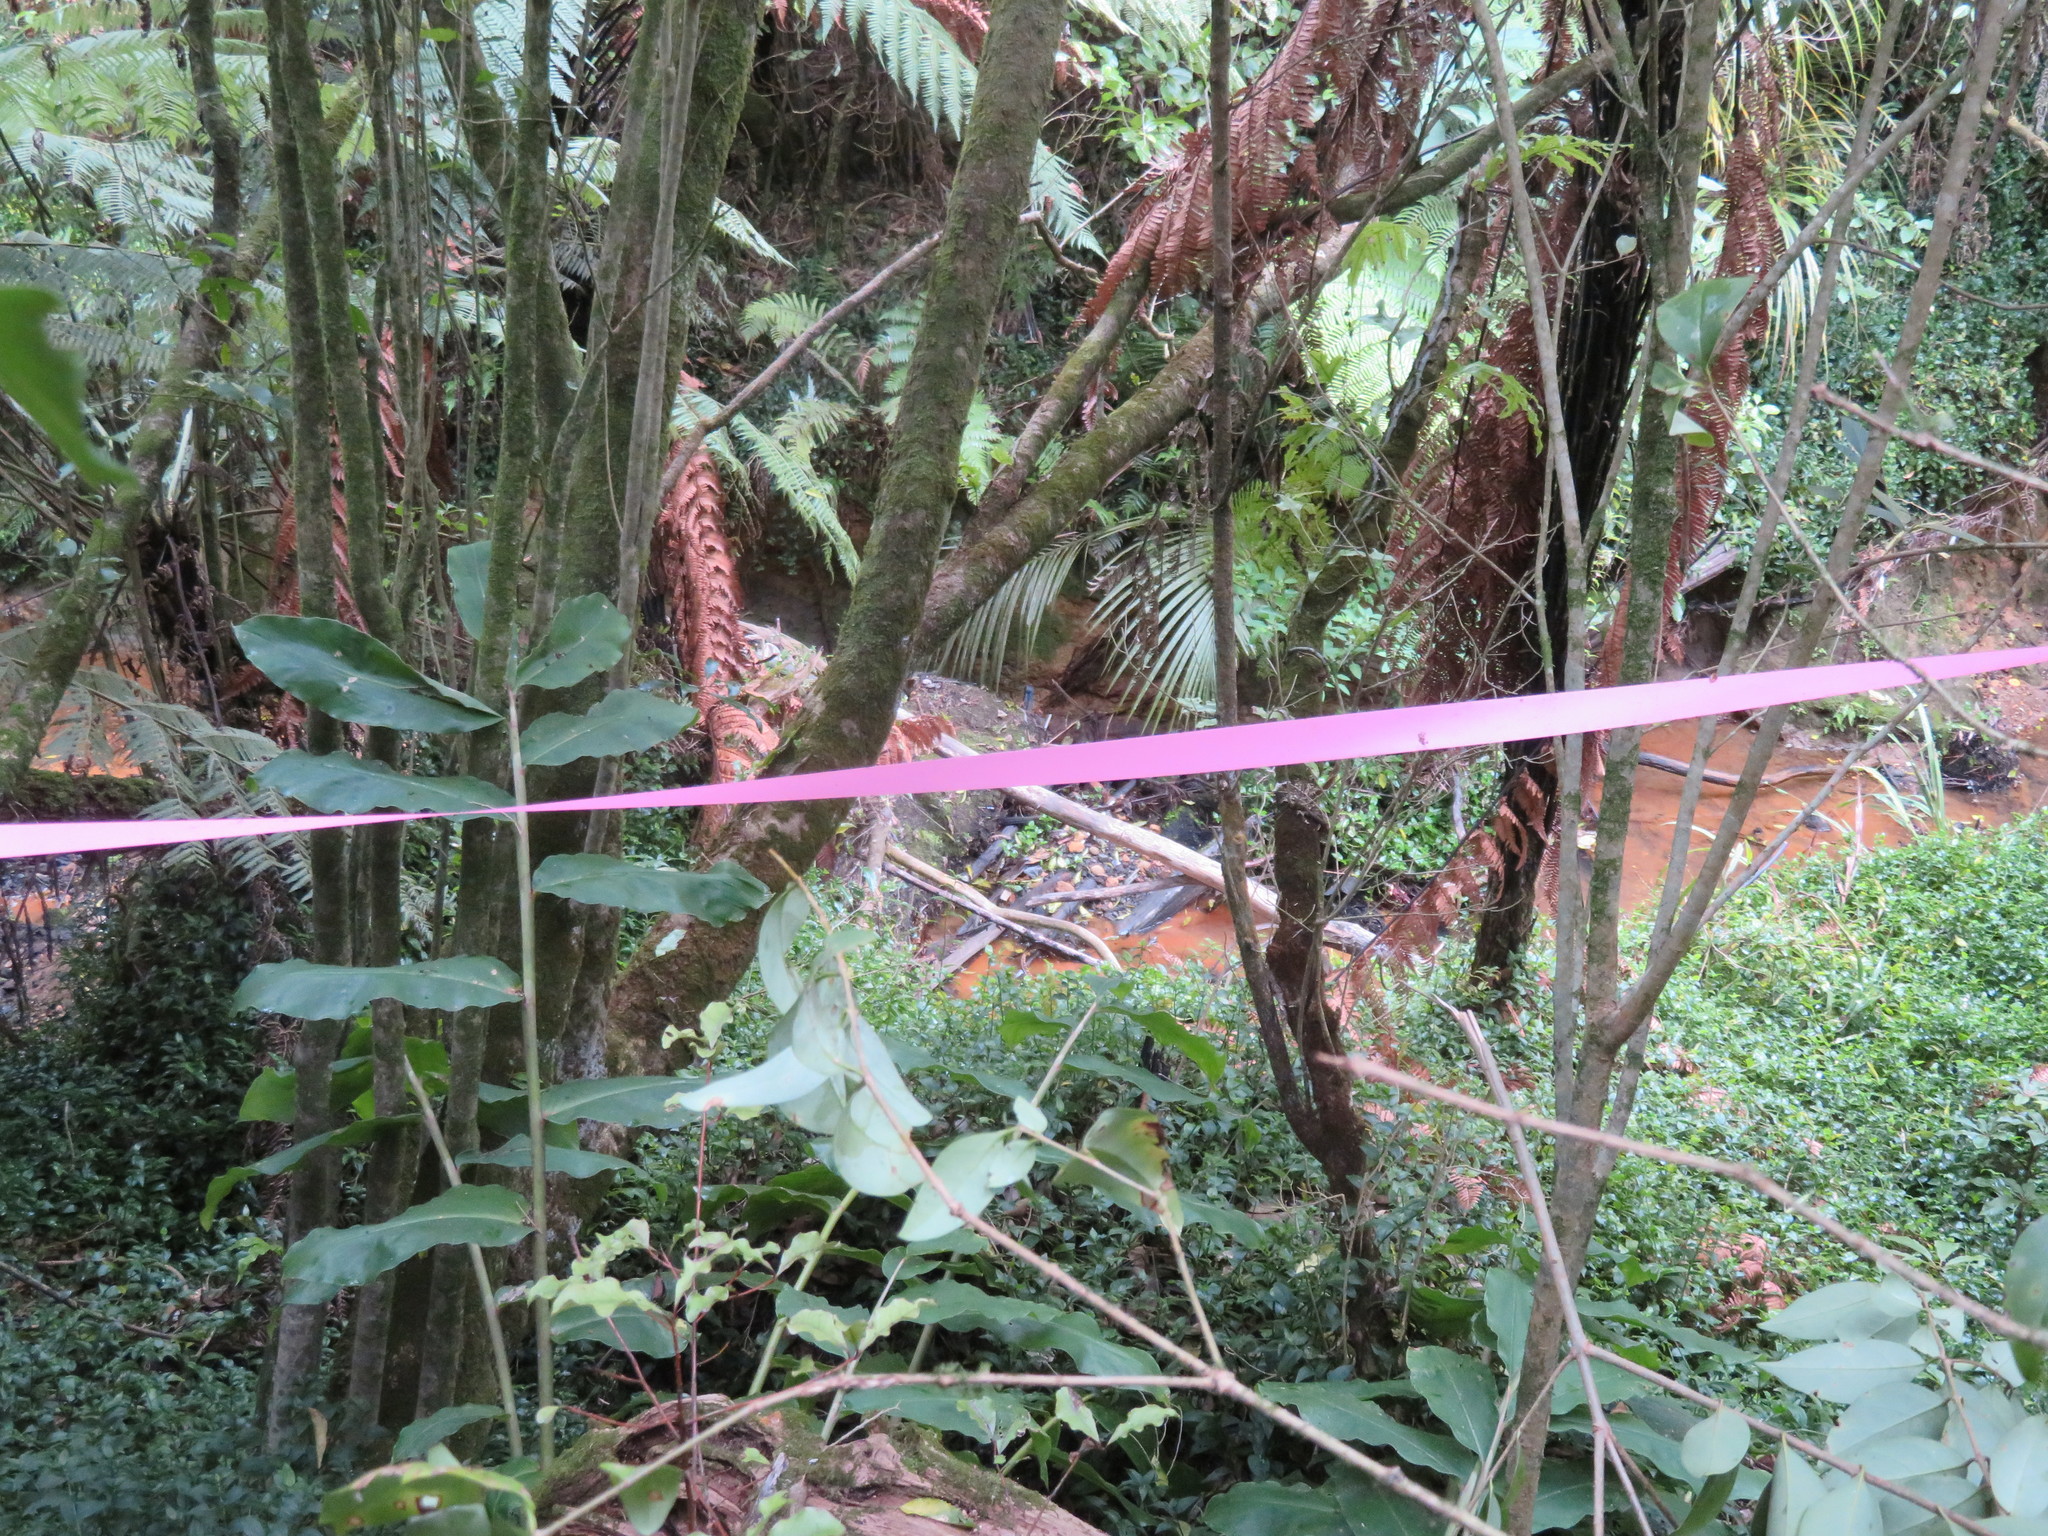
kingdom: Plantae
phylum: Tracheophyta
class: Liliopsida
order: Zingiberales
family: Zingiberaceae
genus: Hedychium
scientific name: Hedychium gardnerianum
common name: Himalayan ginger
